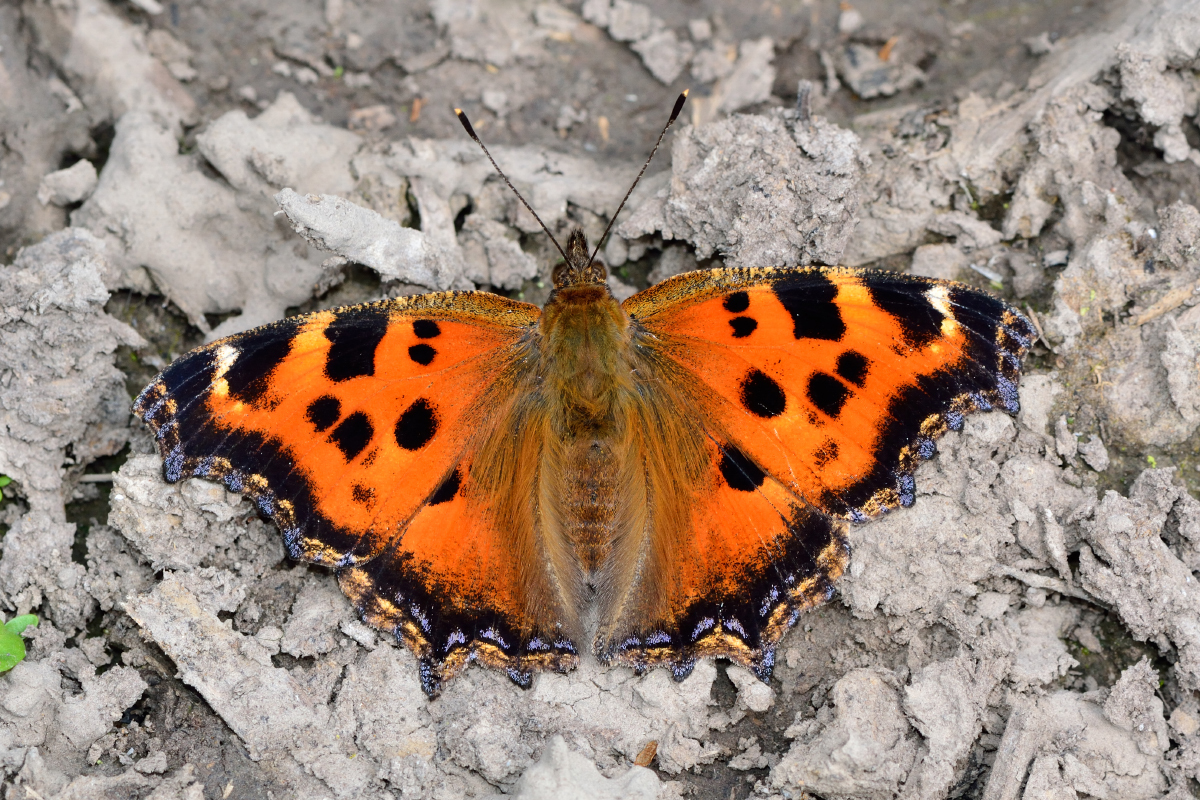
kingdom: Animalia
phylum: Arthropoda
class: Insecta
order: Lepidoptera
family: Nymphalidae
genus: Nymphalis
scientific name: Nymphalis xanthomelas
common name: Scarce tortoiseshell
